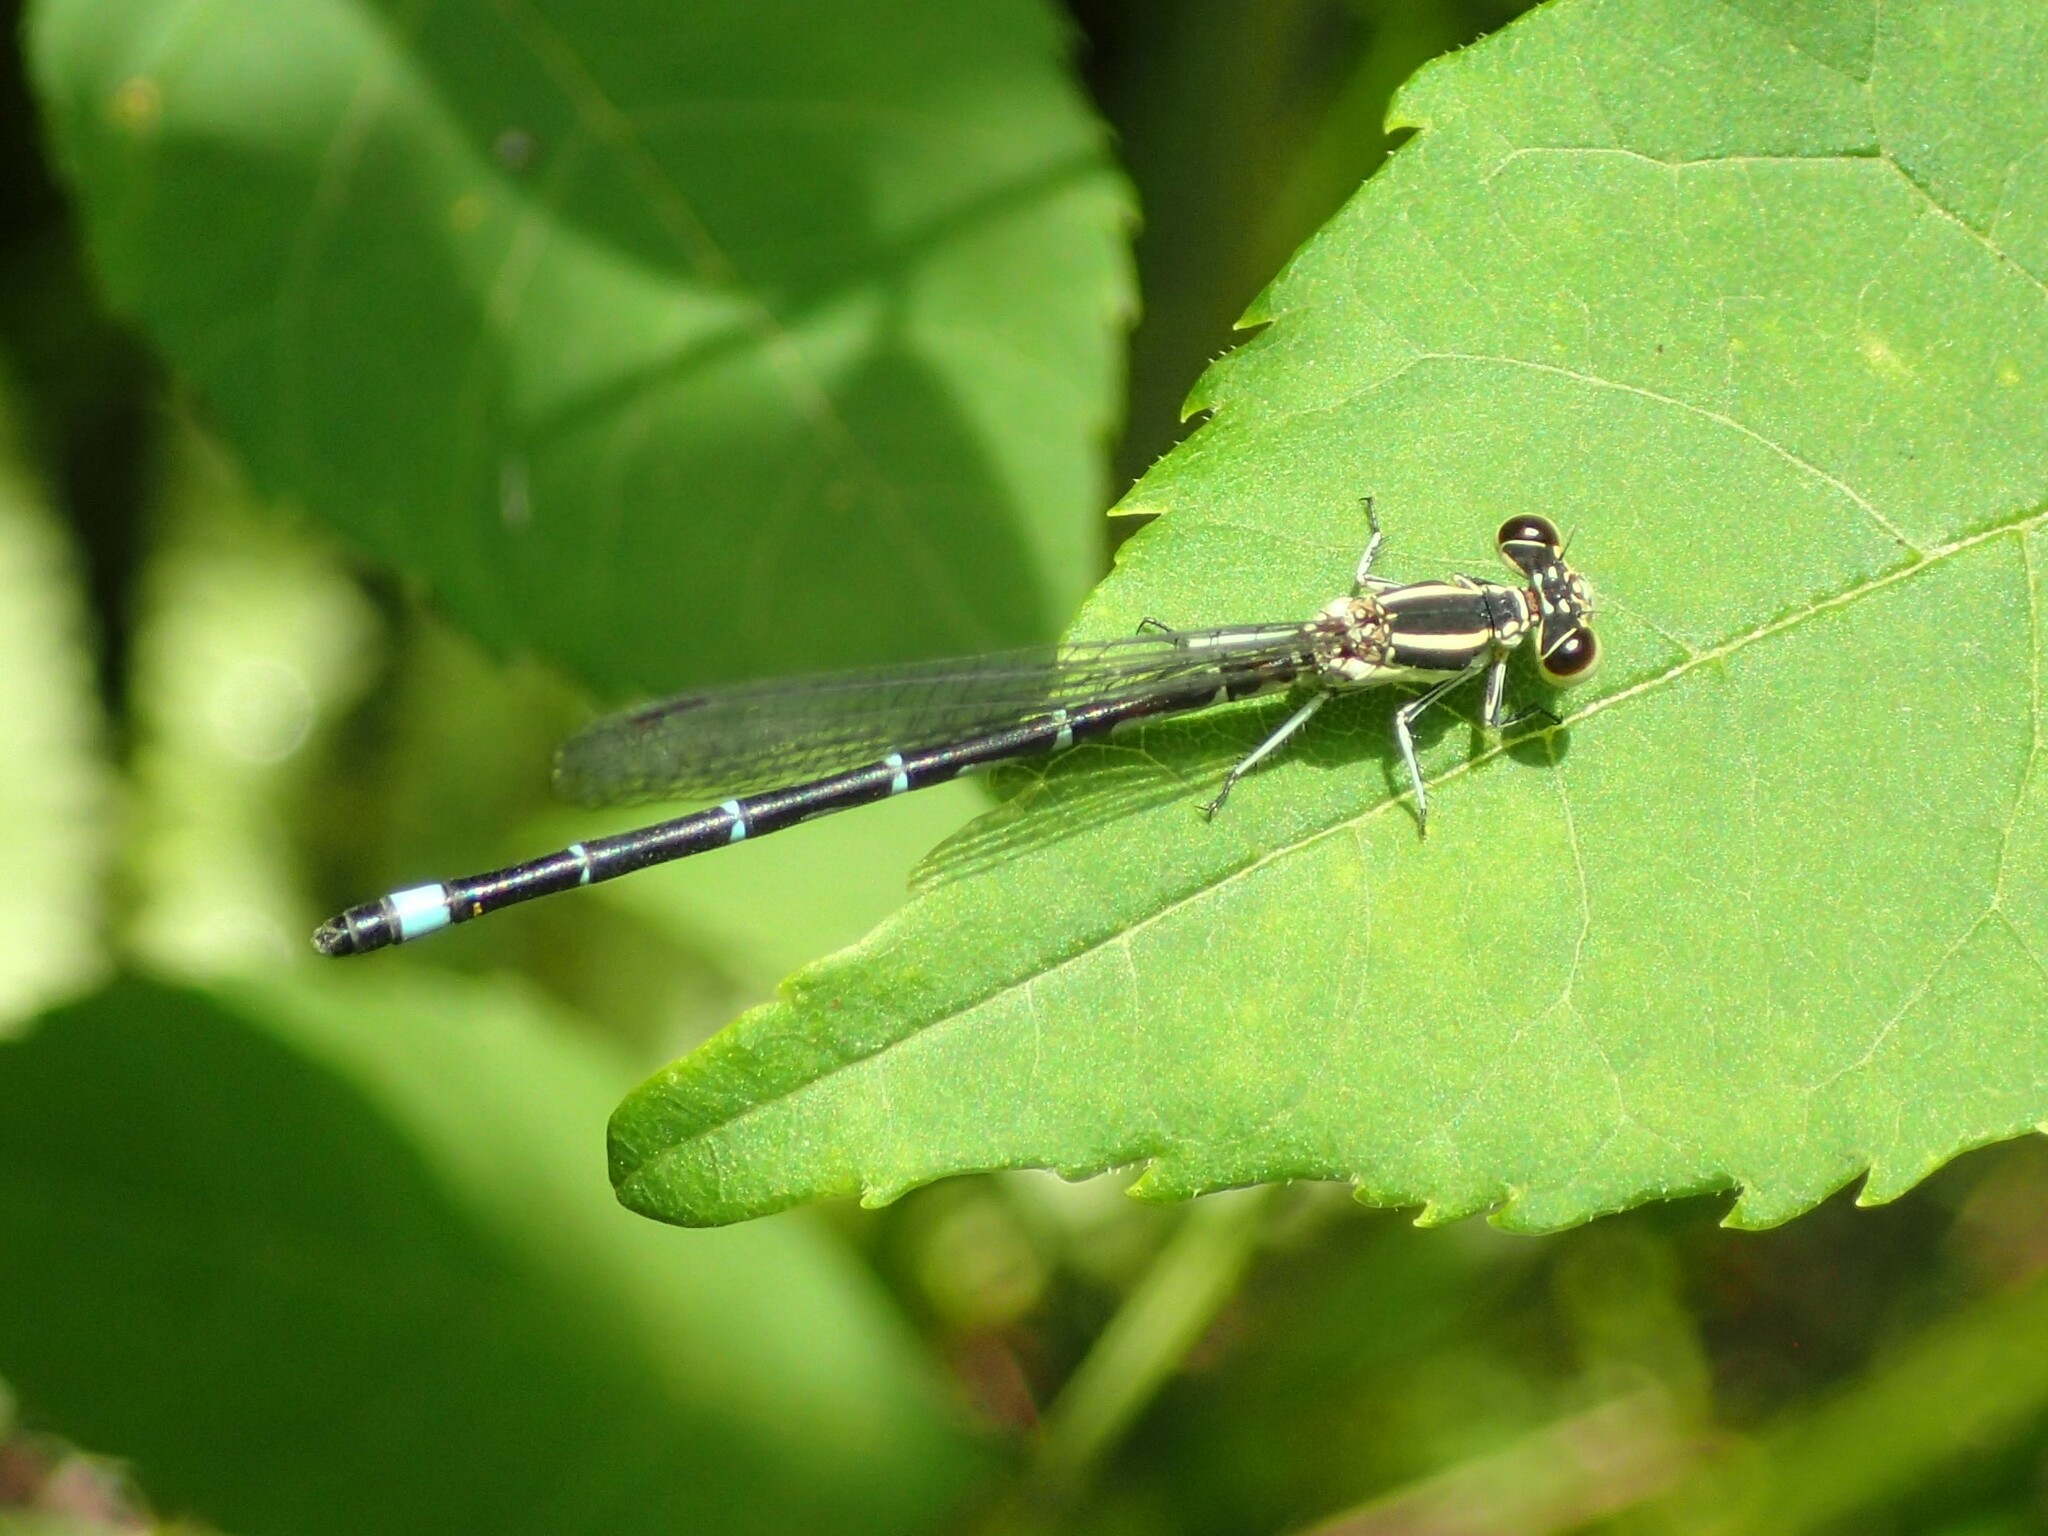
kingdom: Animalia
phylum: Arthropoda
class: Insecta
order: Odonata
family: Coenagrionidae
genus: Argia
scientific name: Argia bipunctulata
